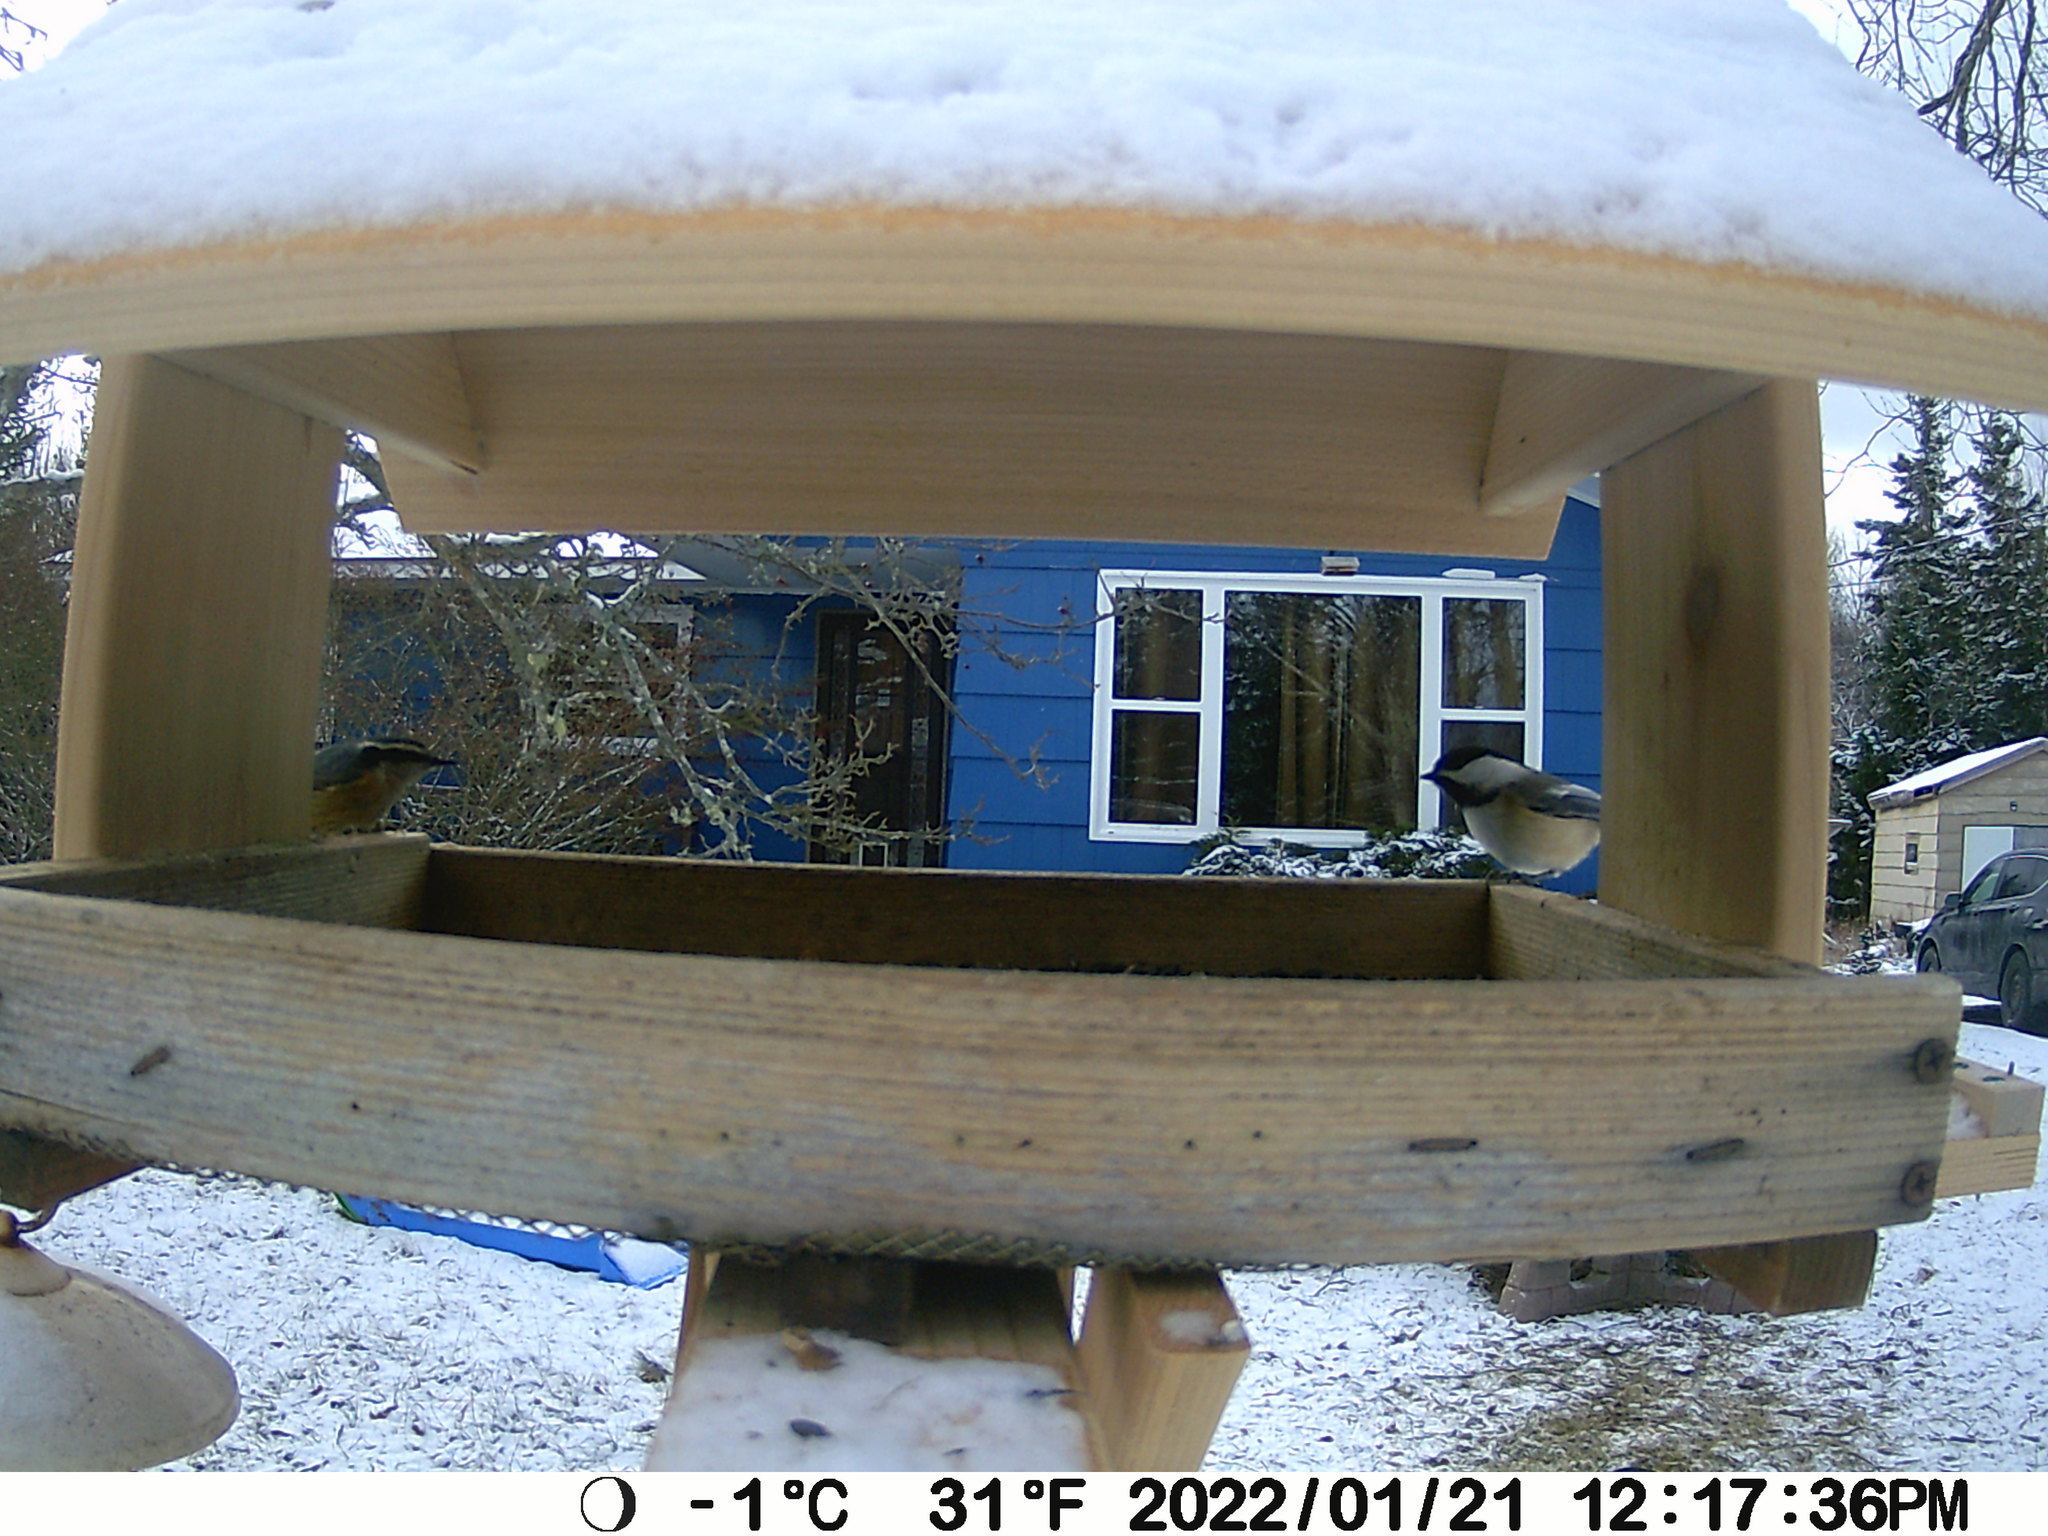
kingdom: Animalia
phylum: Chordata
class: Aves
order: Passeriformes
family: Sittidae
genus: Sitta
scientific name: Sitta canadensis
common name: Red-breasted nuthatch
